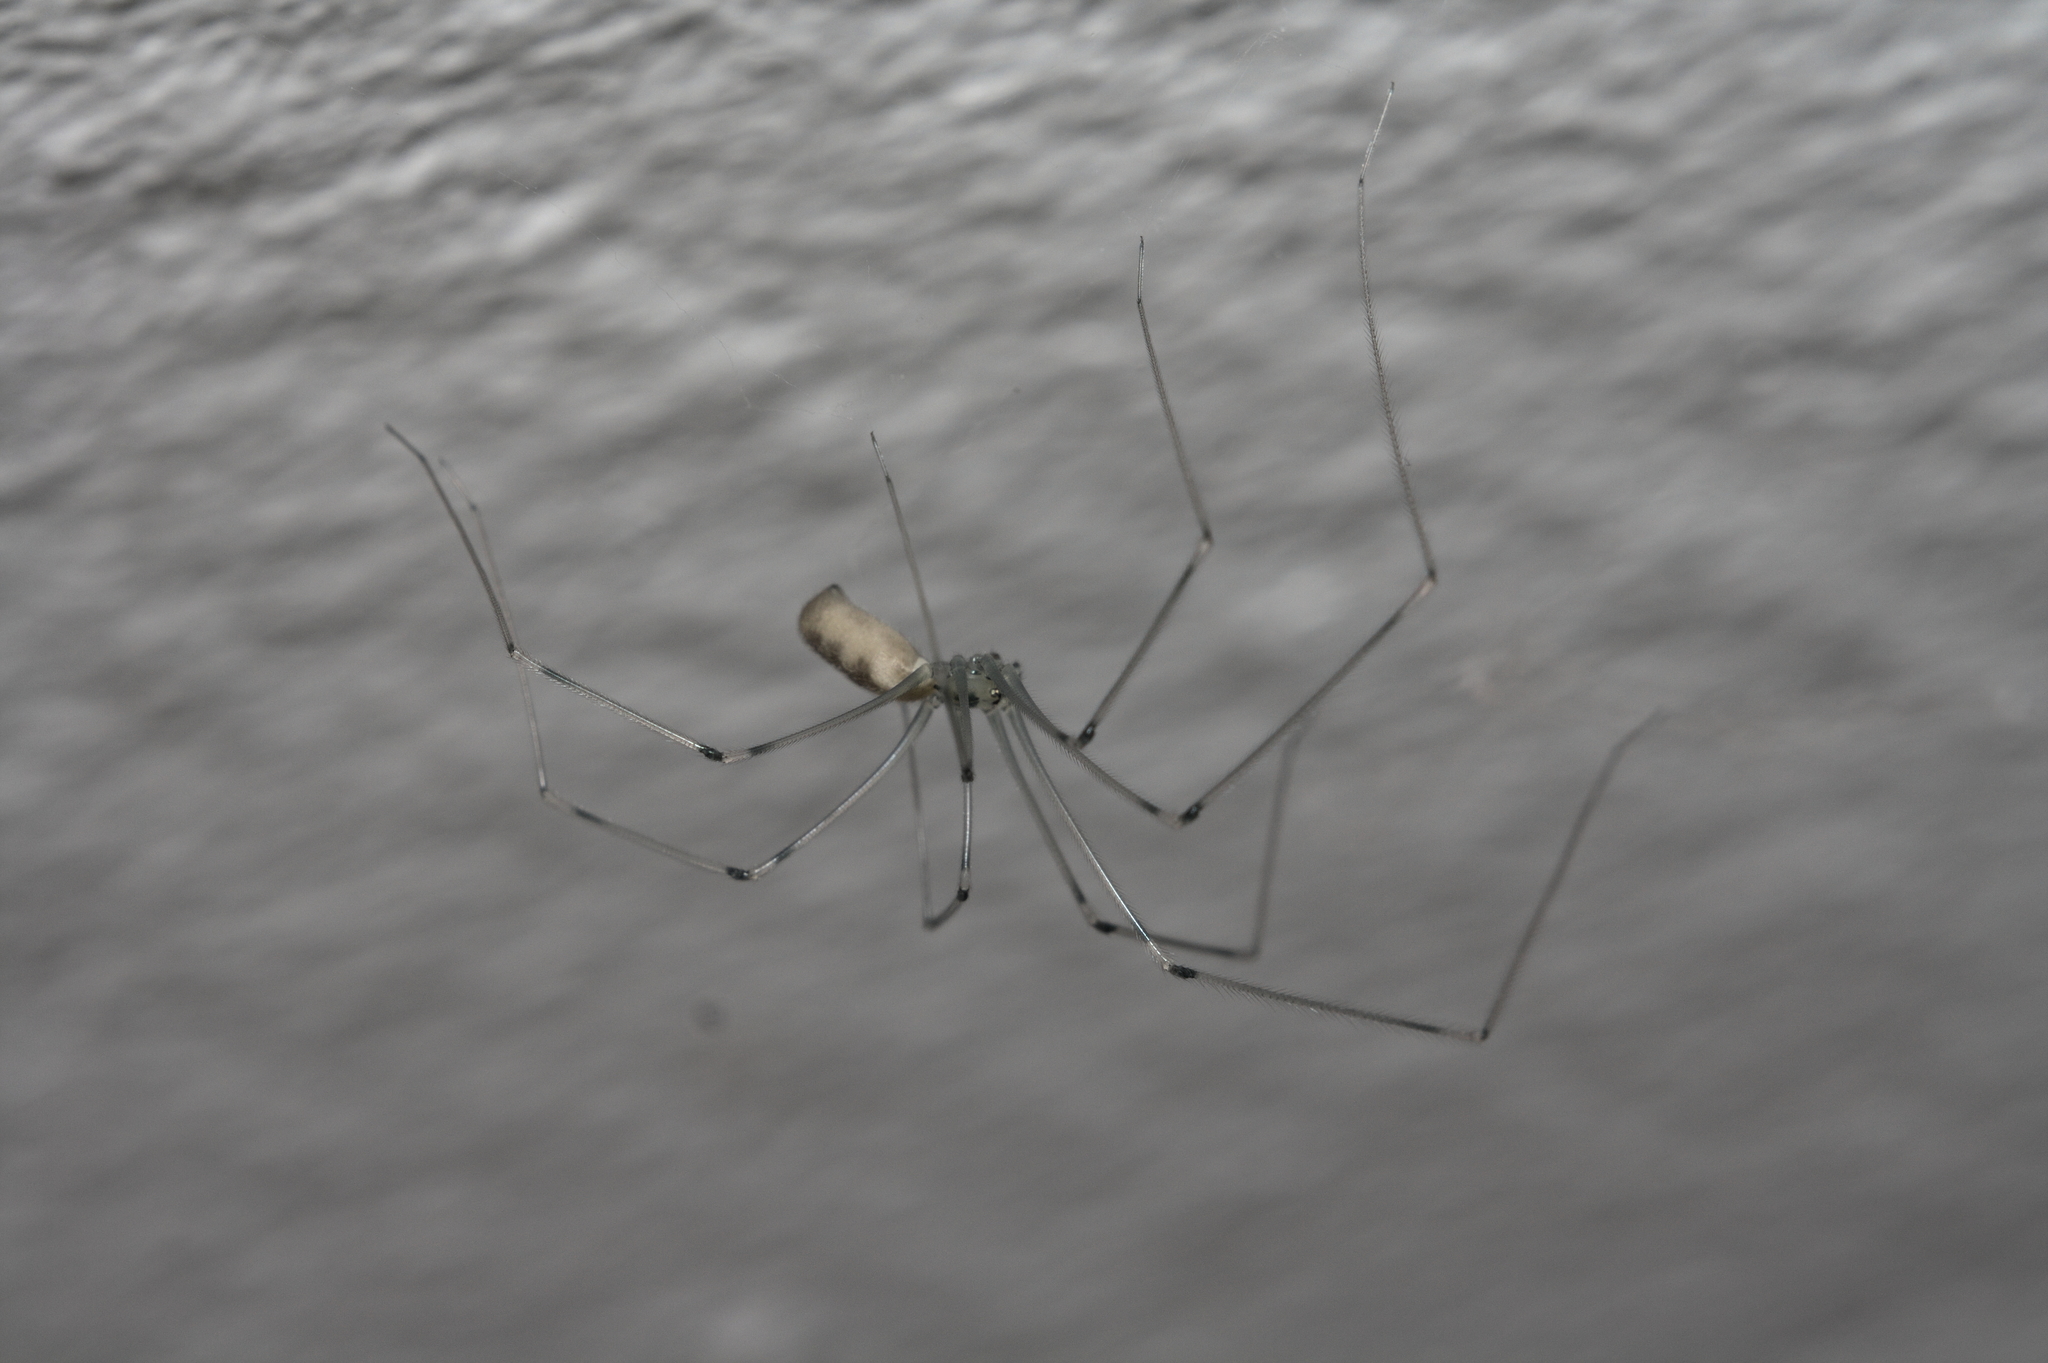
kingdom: Animalia
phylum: Arthropoda
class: Arachnida
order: Araneae
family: Pholcidae
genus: Pholcus
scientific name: Pholcus phalangioides
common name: Longbodied cellar spider
